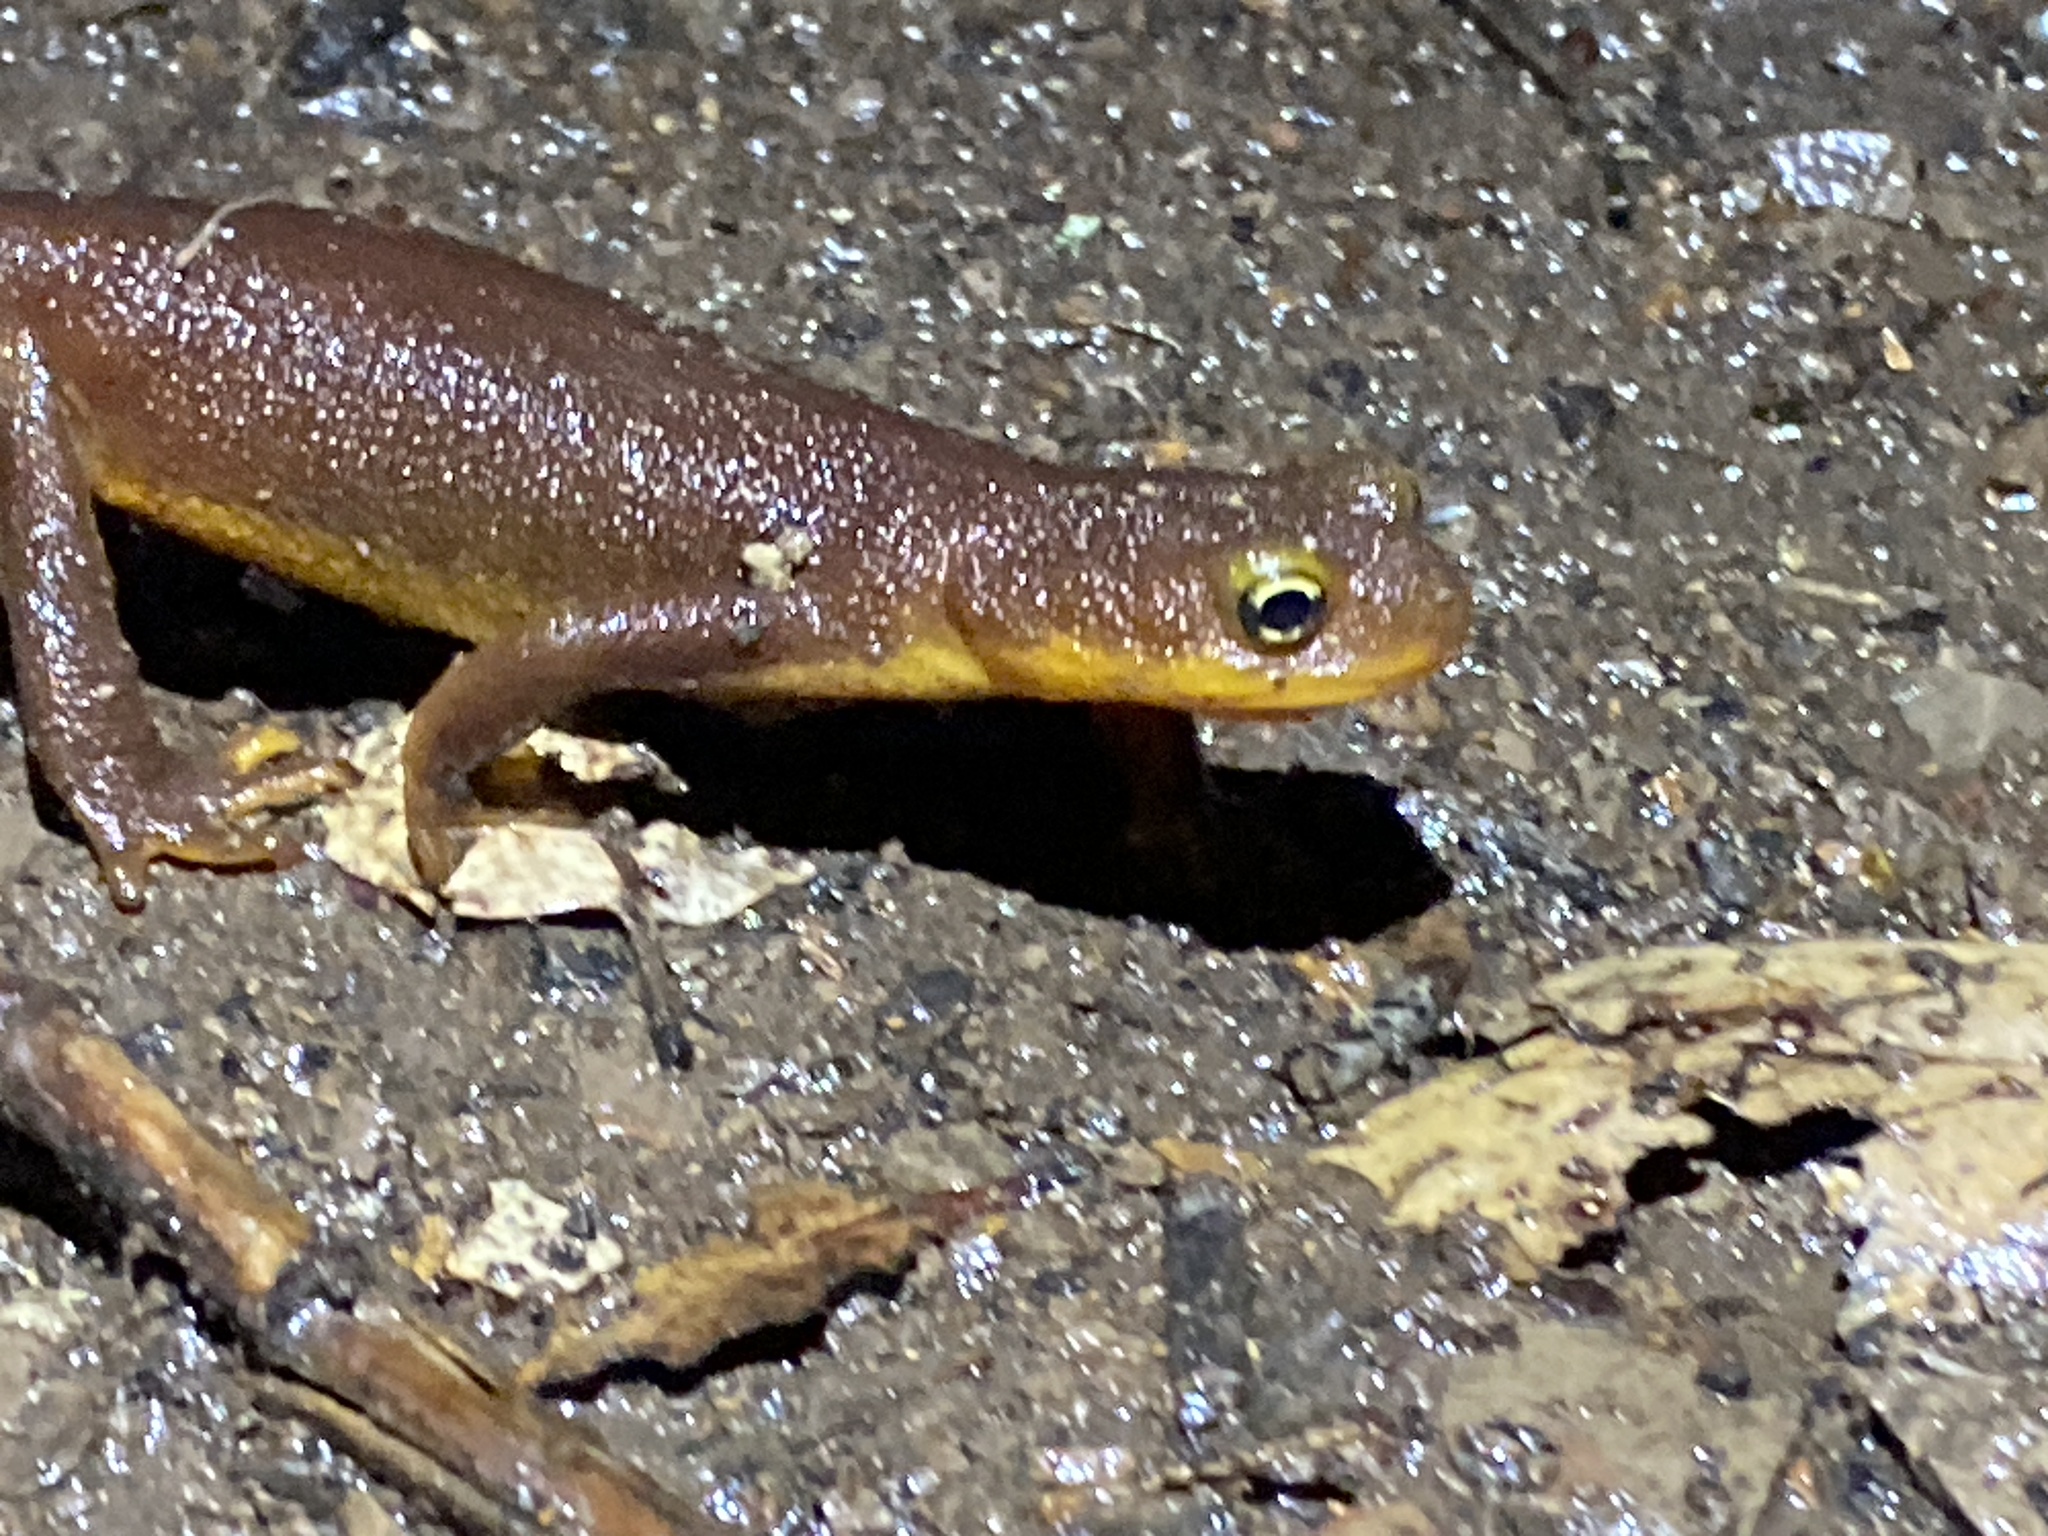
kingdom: Animalia
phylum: Chordata
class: Amphibia
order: Caudata
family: Salamandridae
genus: Taricha
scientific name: Taricha torosa
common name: California newt
